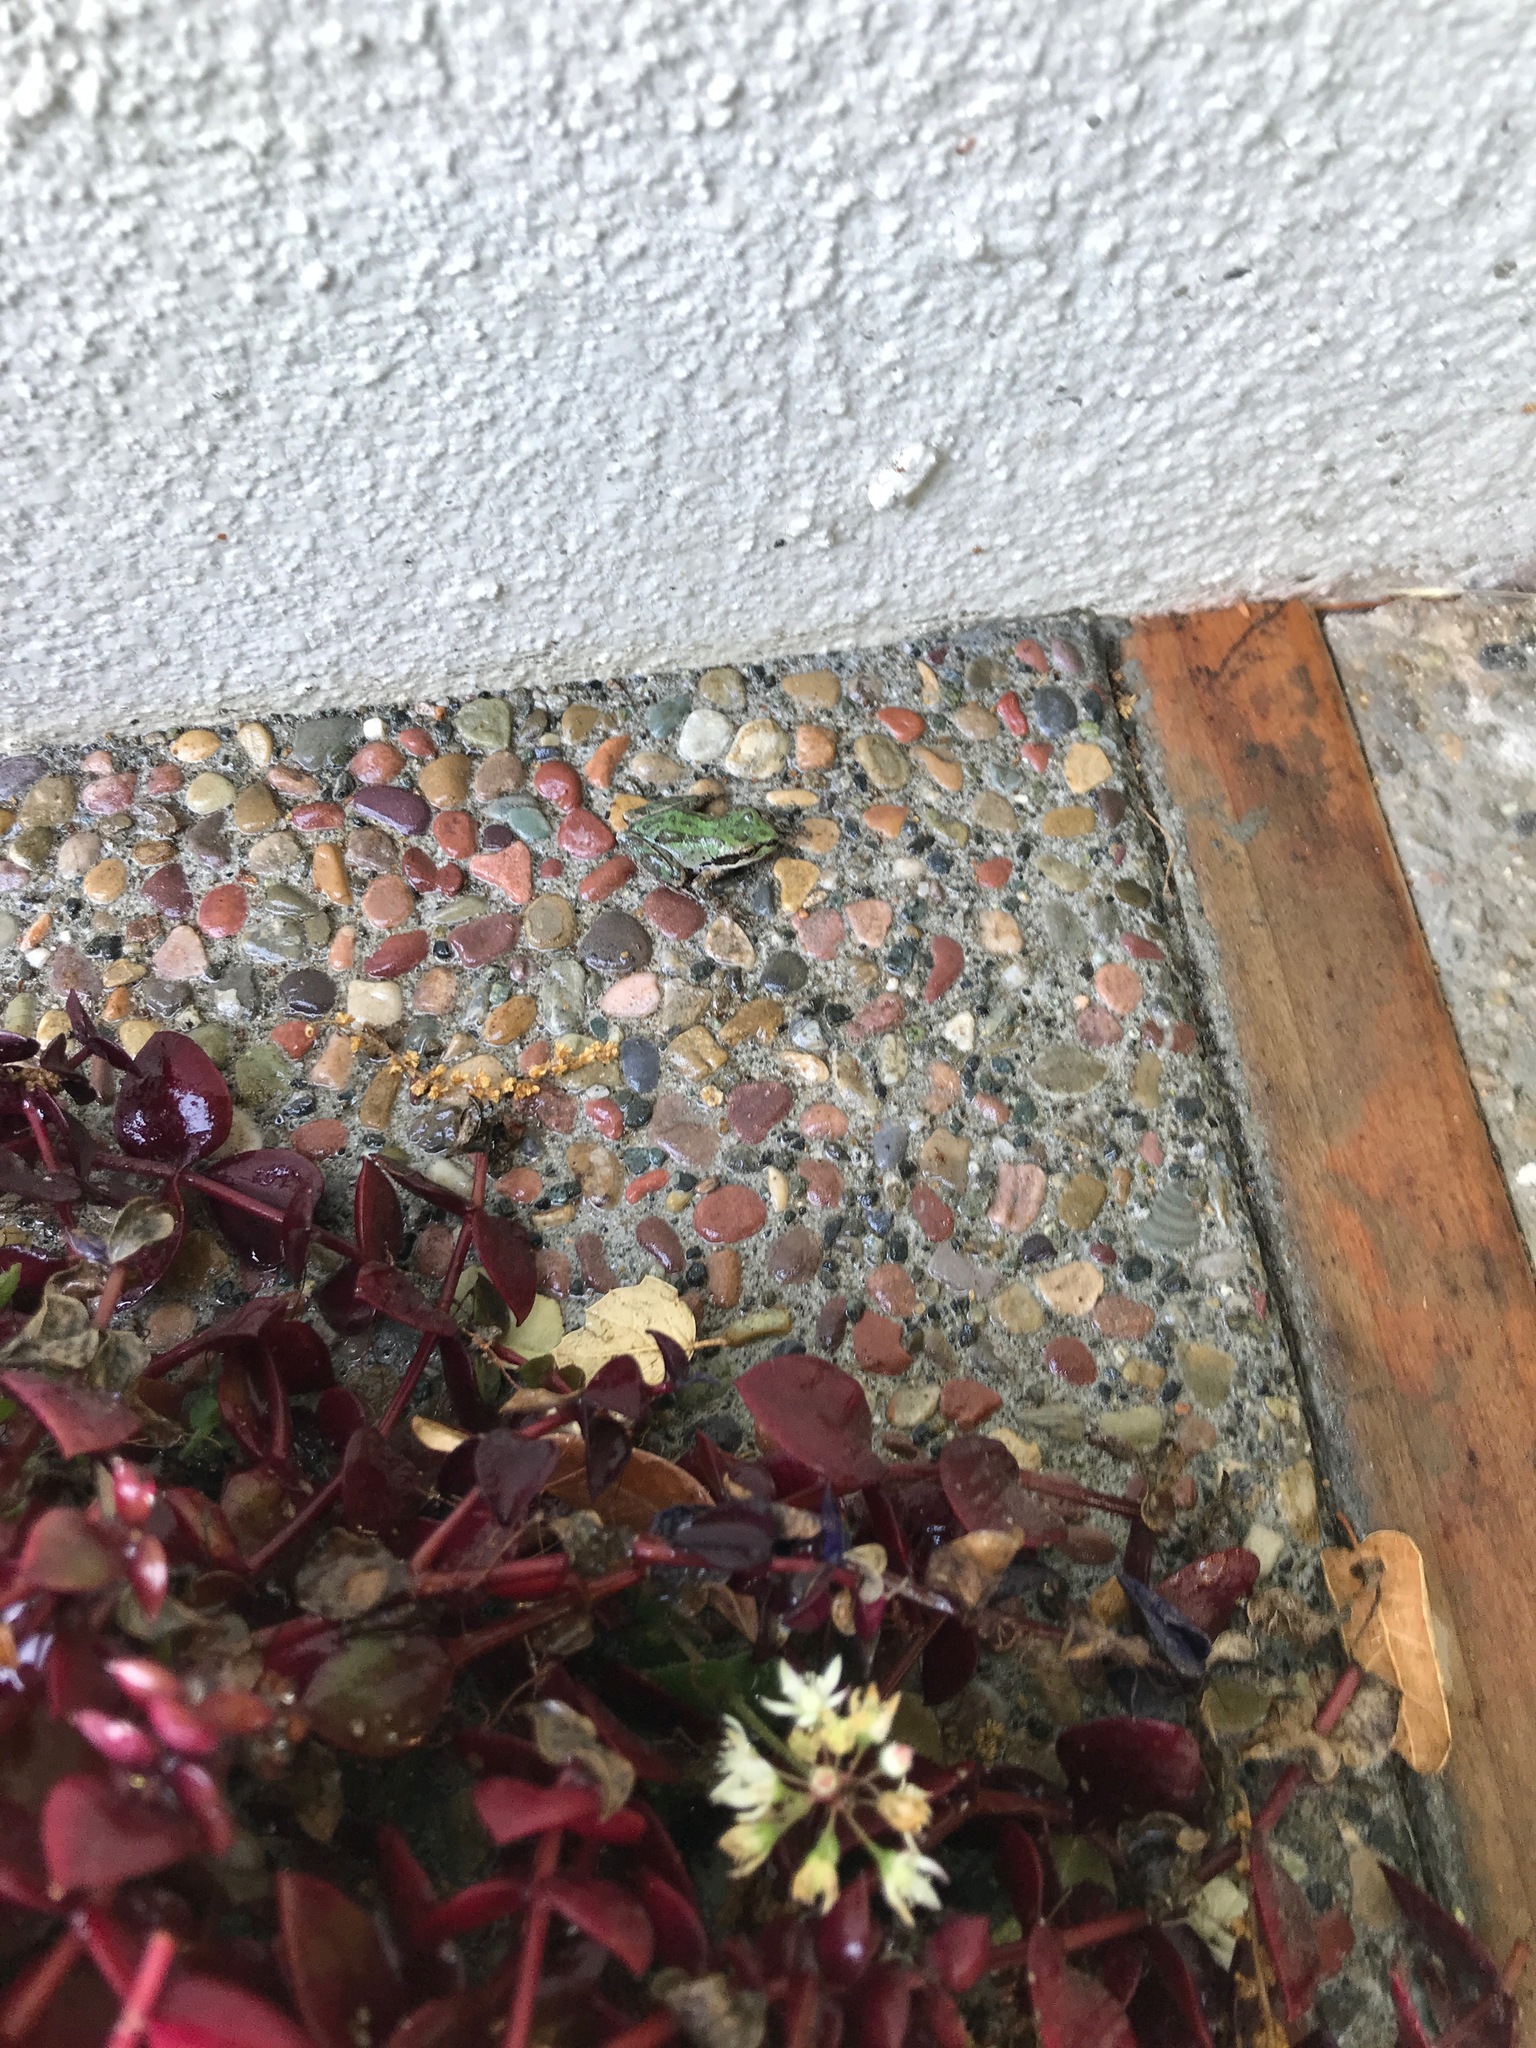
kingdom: Animalia
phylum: Chordata
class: Amphibia
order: Anura
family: Hylidae
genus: Pseudacris
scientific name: Pseudacris regilla
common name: Pacific chorus frog
